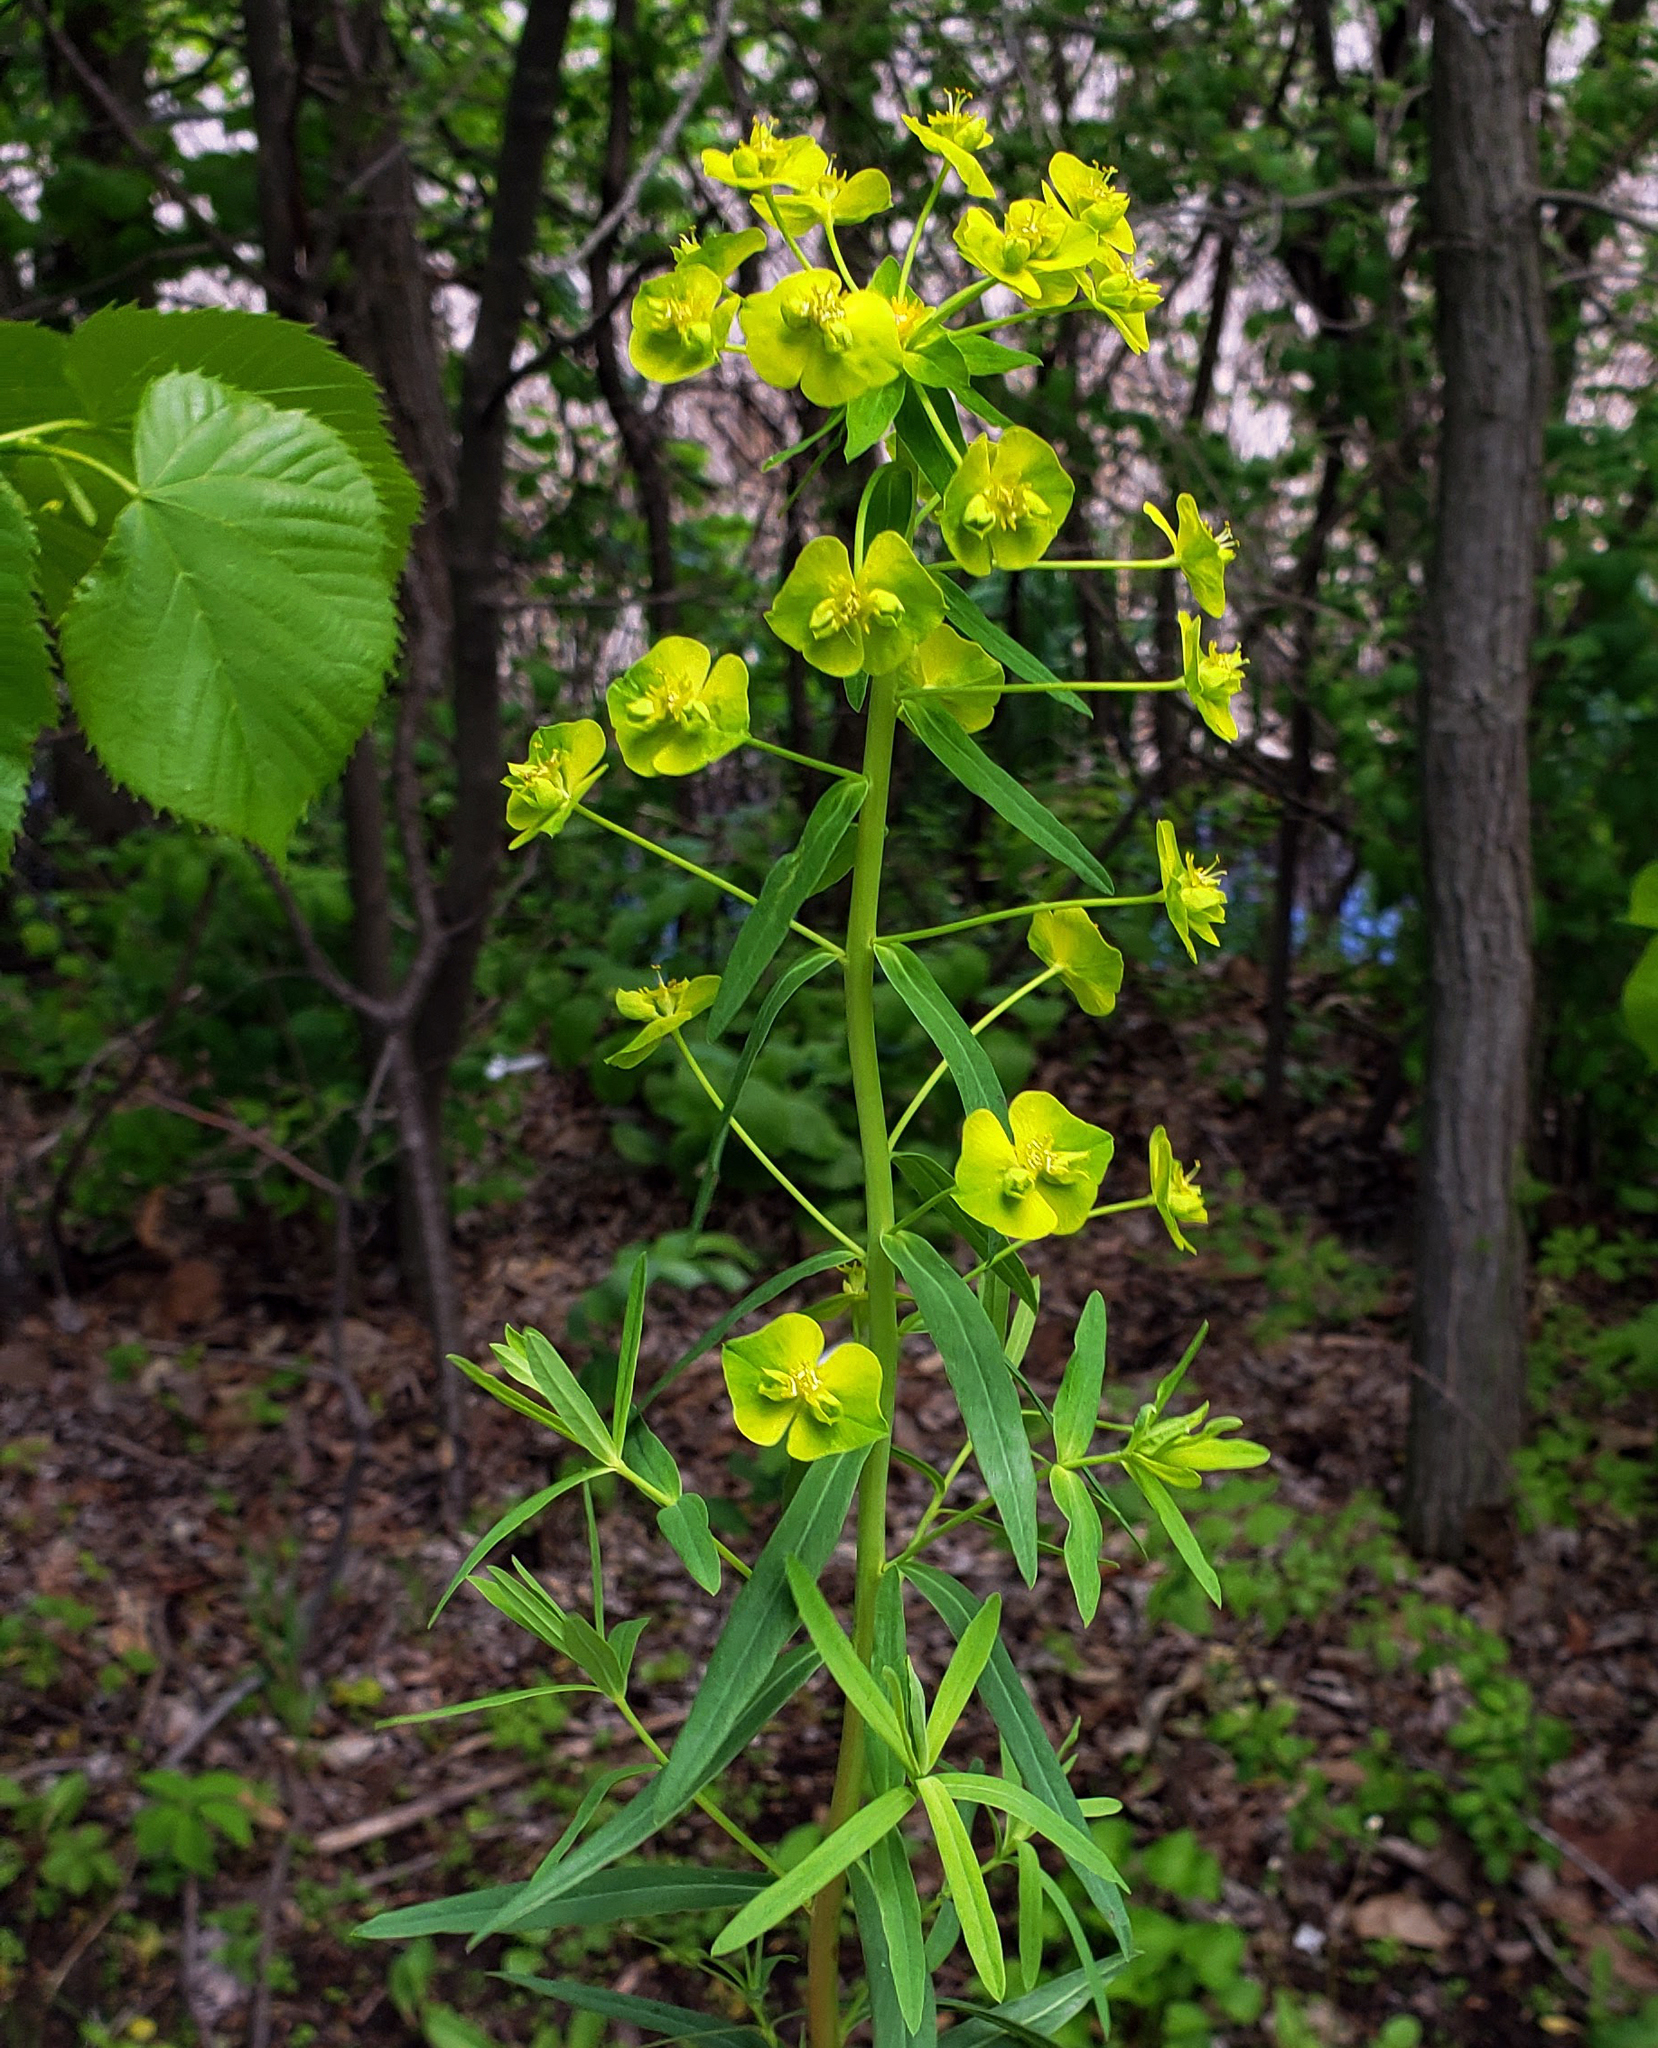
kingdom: Plantae
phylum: Tracheophyta
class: Magnoliopsida
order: Malpighiales
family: Euphorbiaceae
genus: Euphorbia
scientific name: Euphorbia virgata
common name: Leafy spurge
